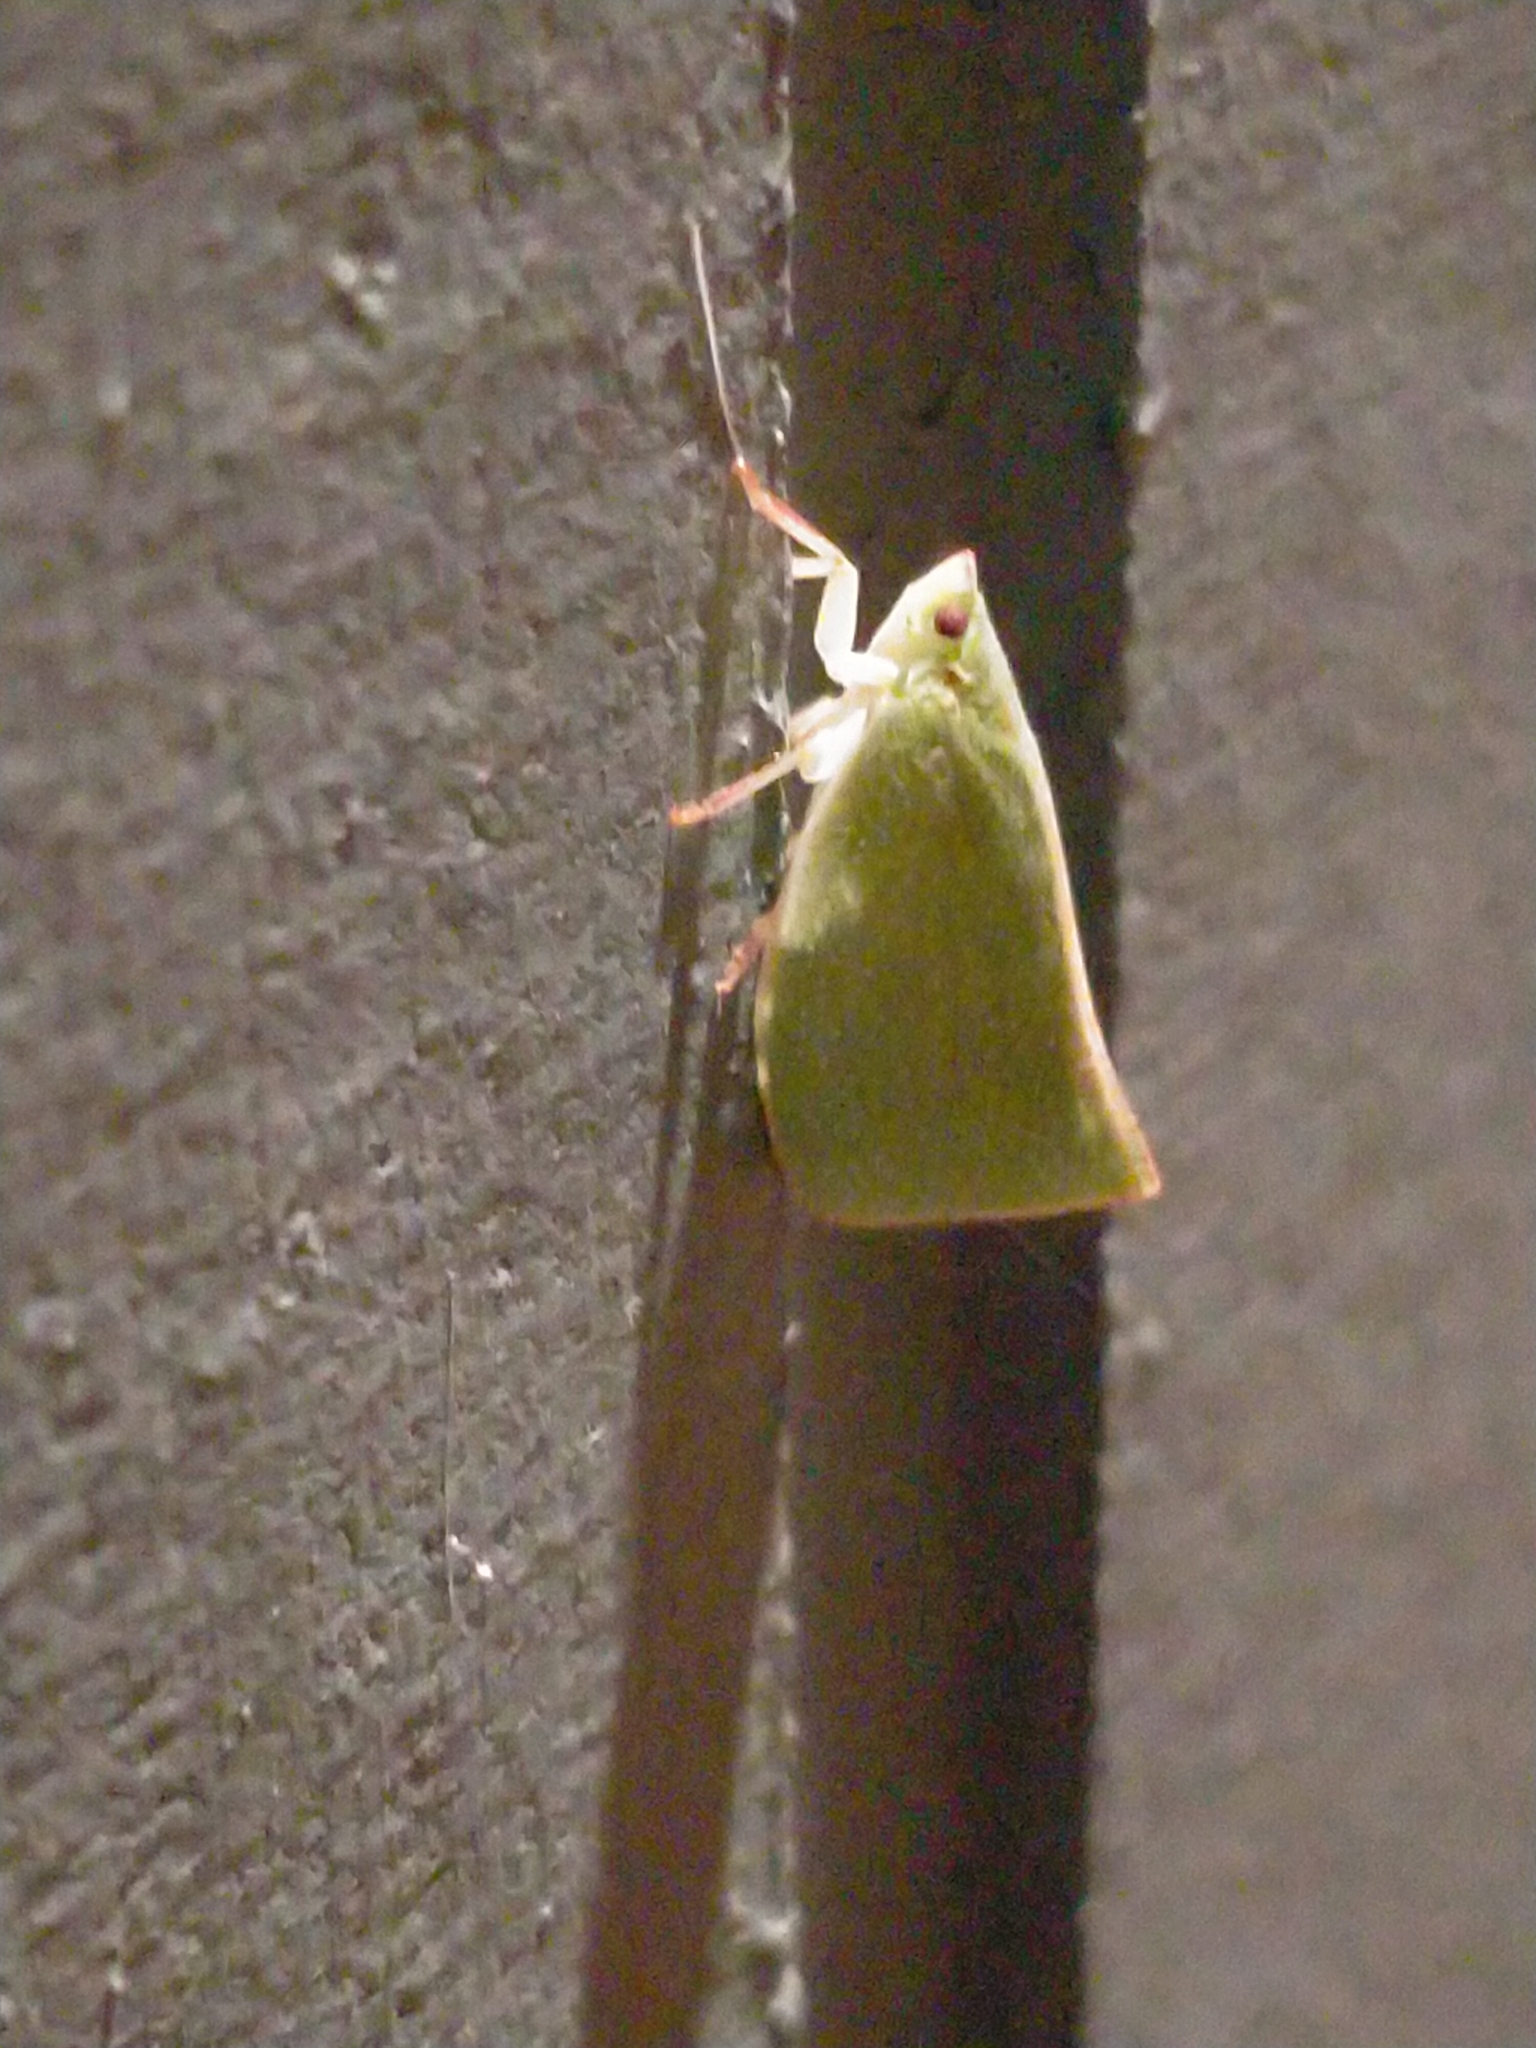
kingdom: Animalia
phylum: Arthropoda
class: Insecta
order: Hemiptera
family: Flatidae
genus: Siphanta
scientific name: Siphanta acuta
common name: Torpedo bug
